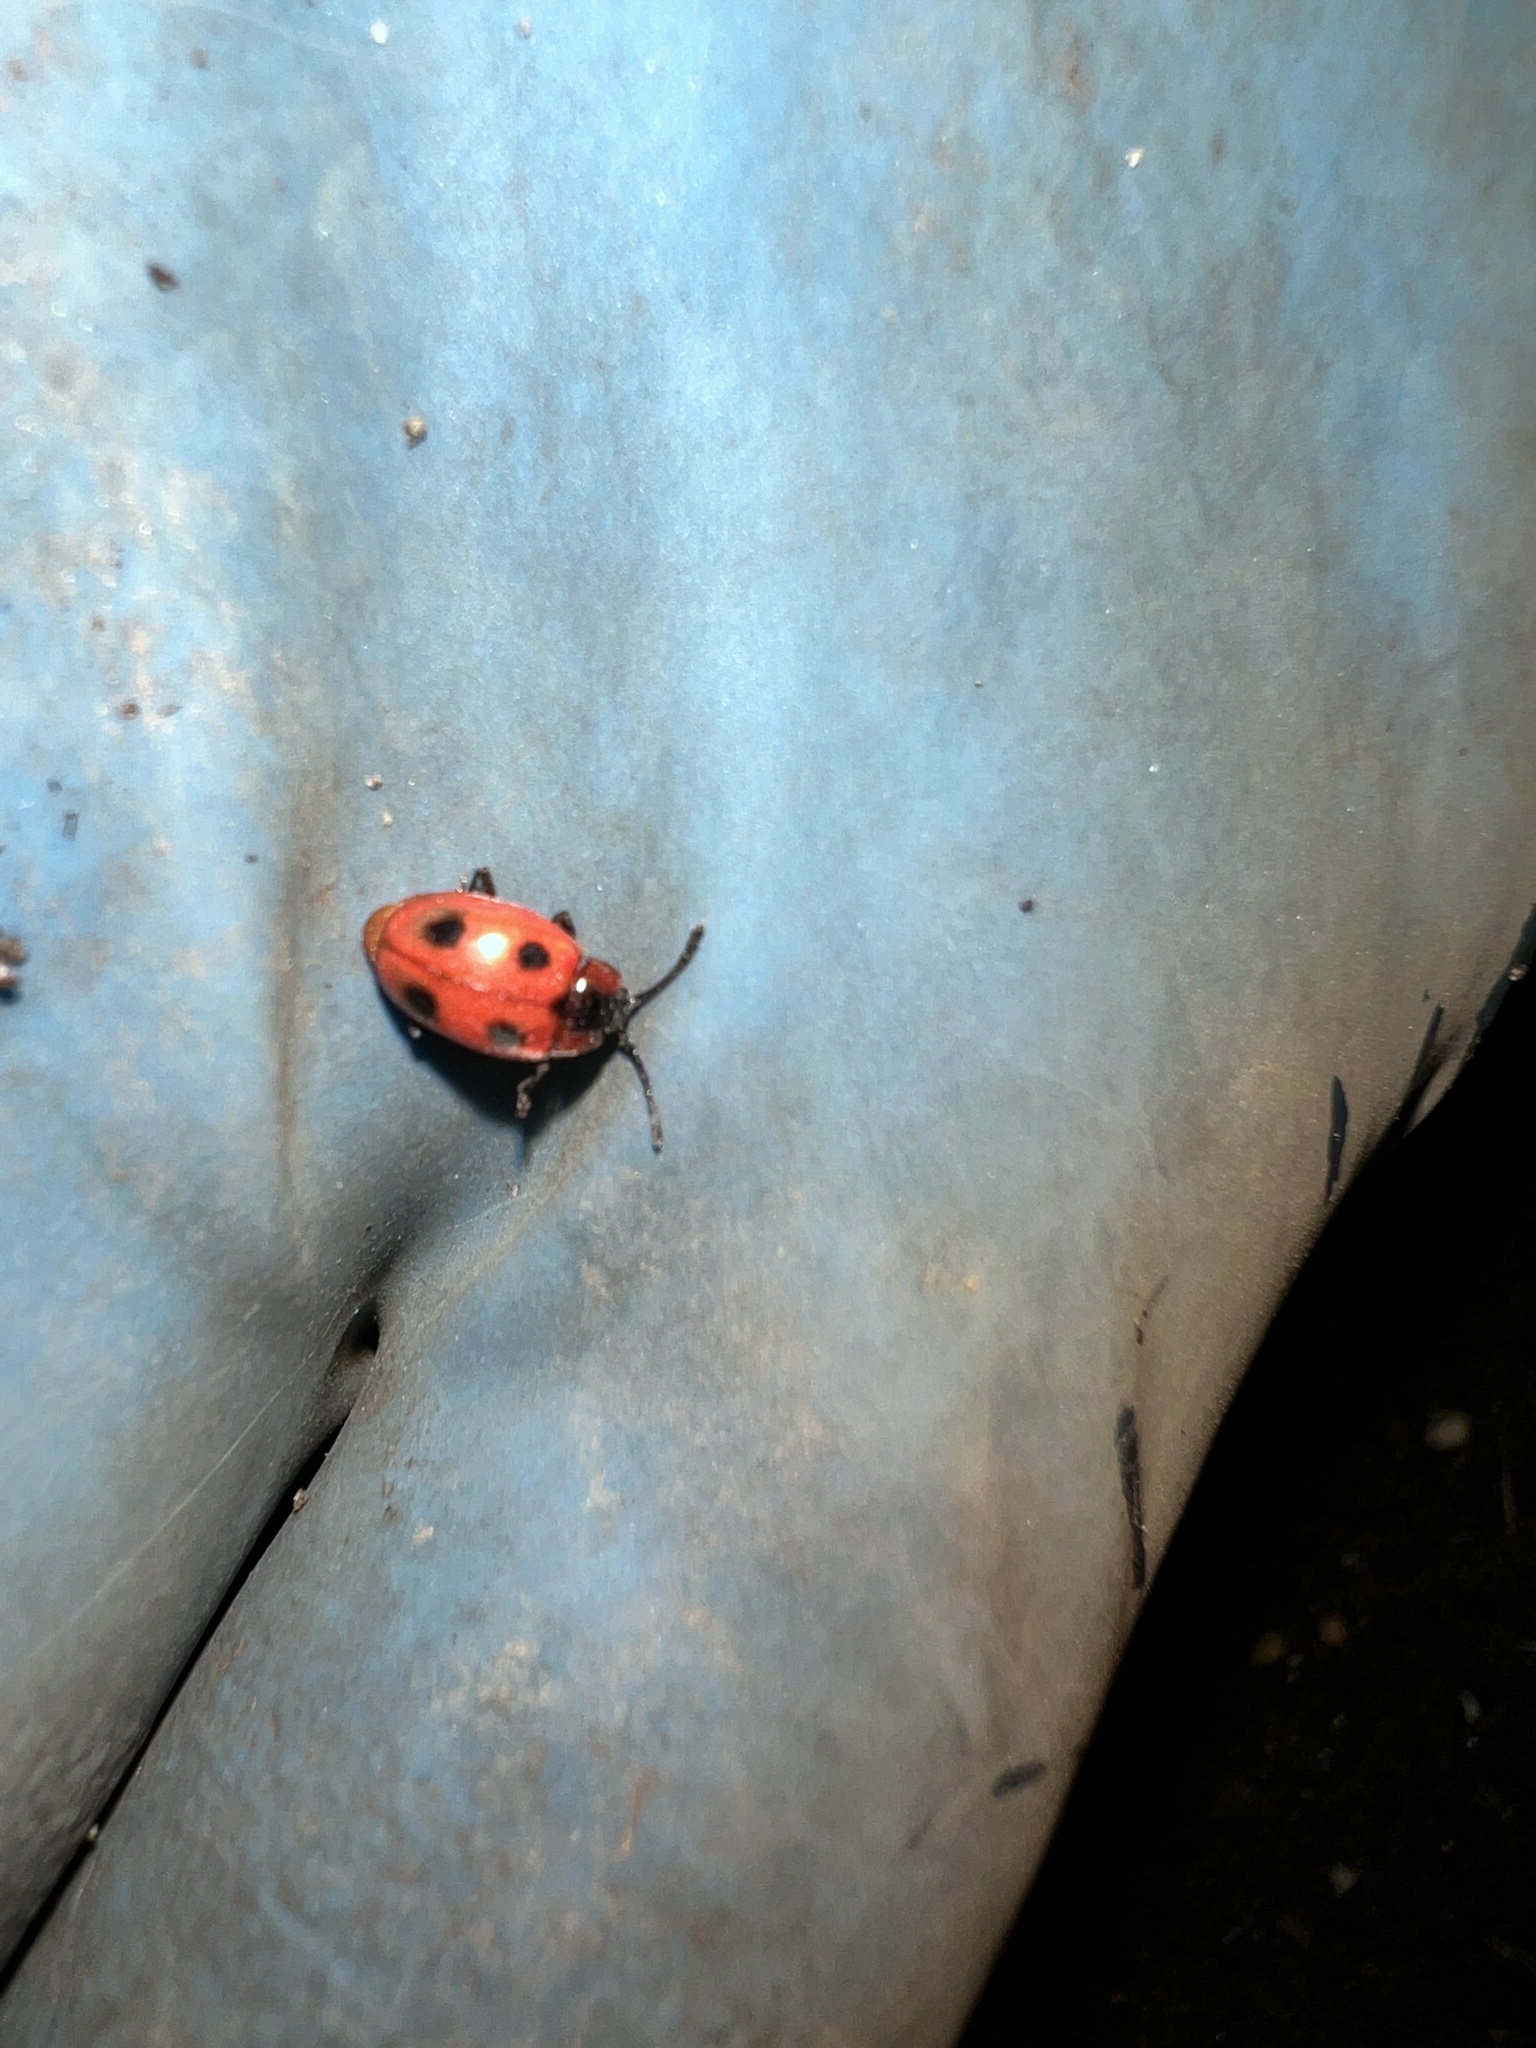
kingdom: Animalia
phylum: Arthropoda
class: Insecta
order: Coleoptera
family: Endomychidae
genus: Endomychus
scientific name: Endomychus coccineus
